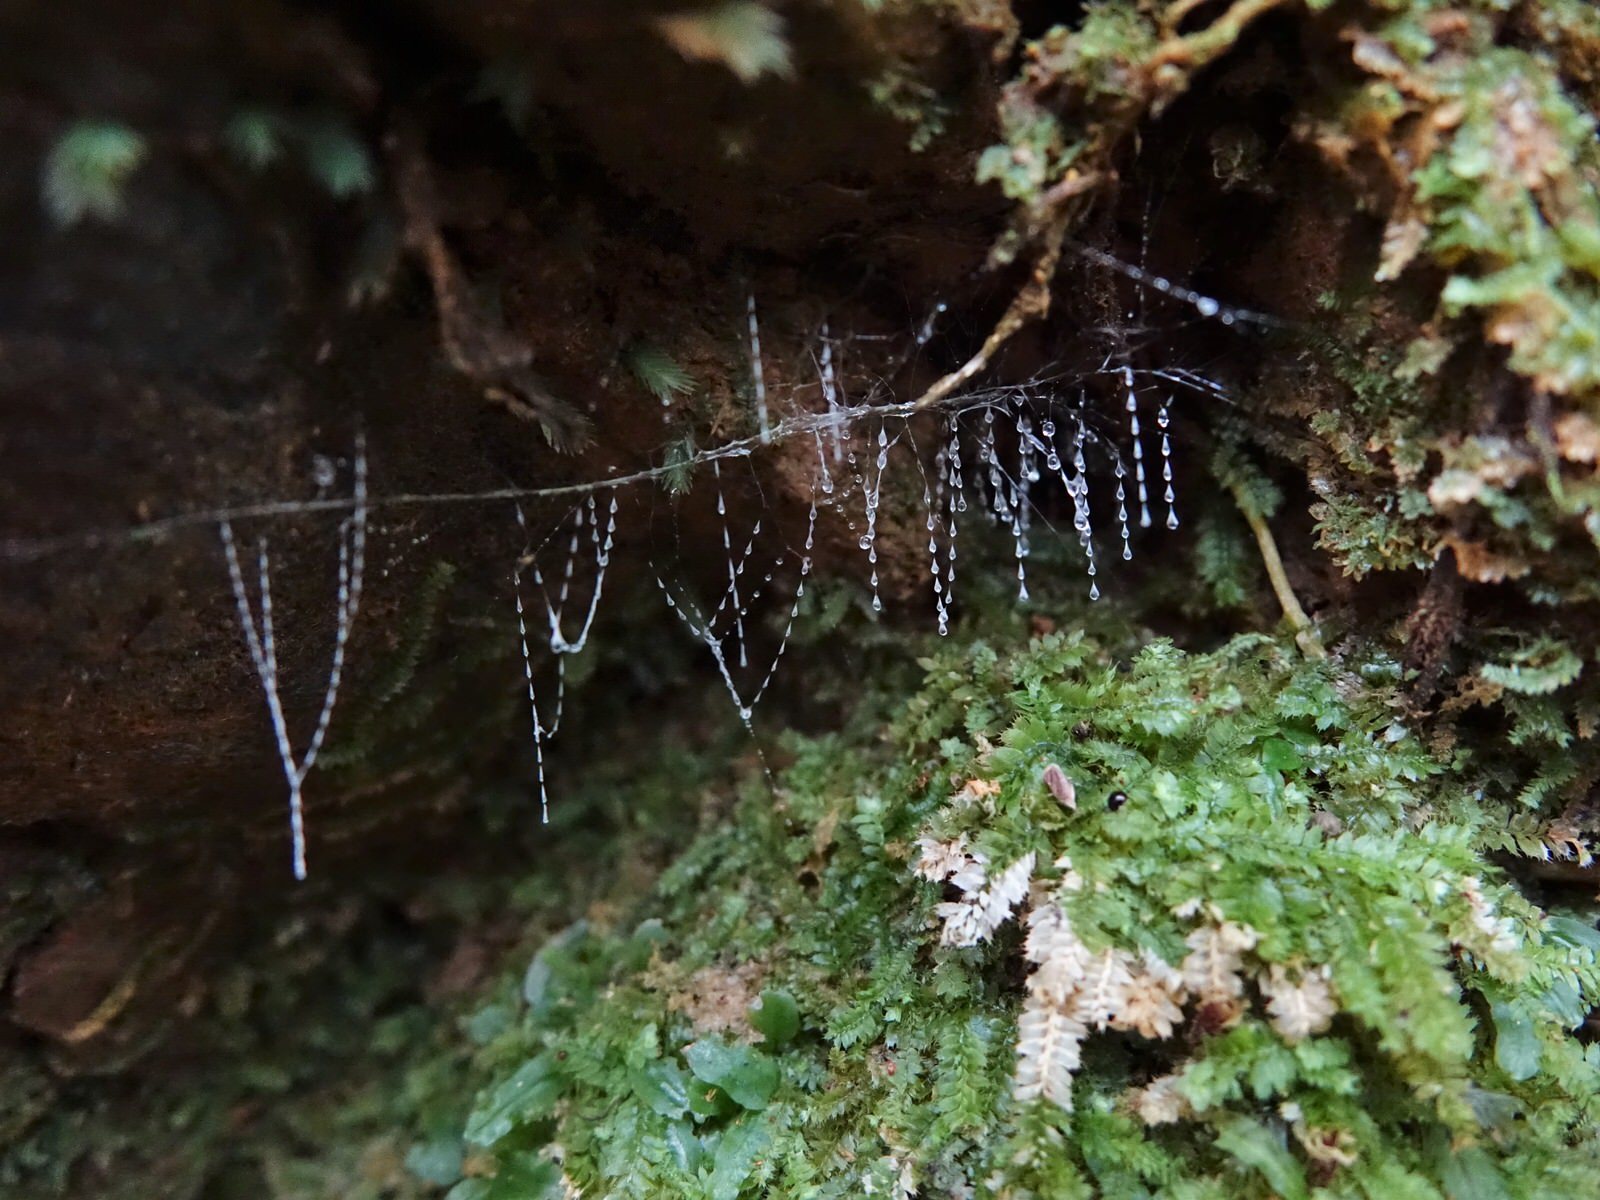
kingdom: Animalia
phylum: Arthropoda
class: Insecta
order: Diptera
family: Keroplatidae
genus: Arachnocampa
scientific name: Arachnocampa luminosa
